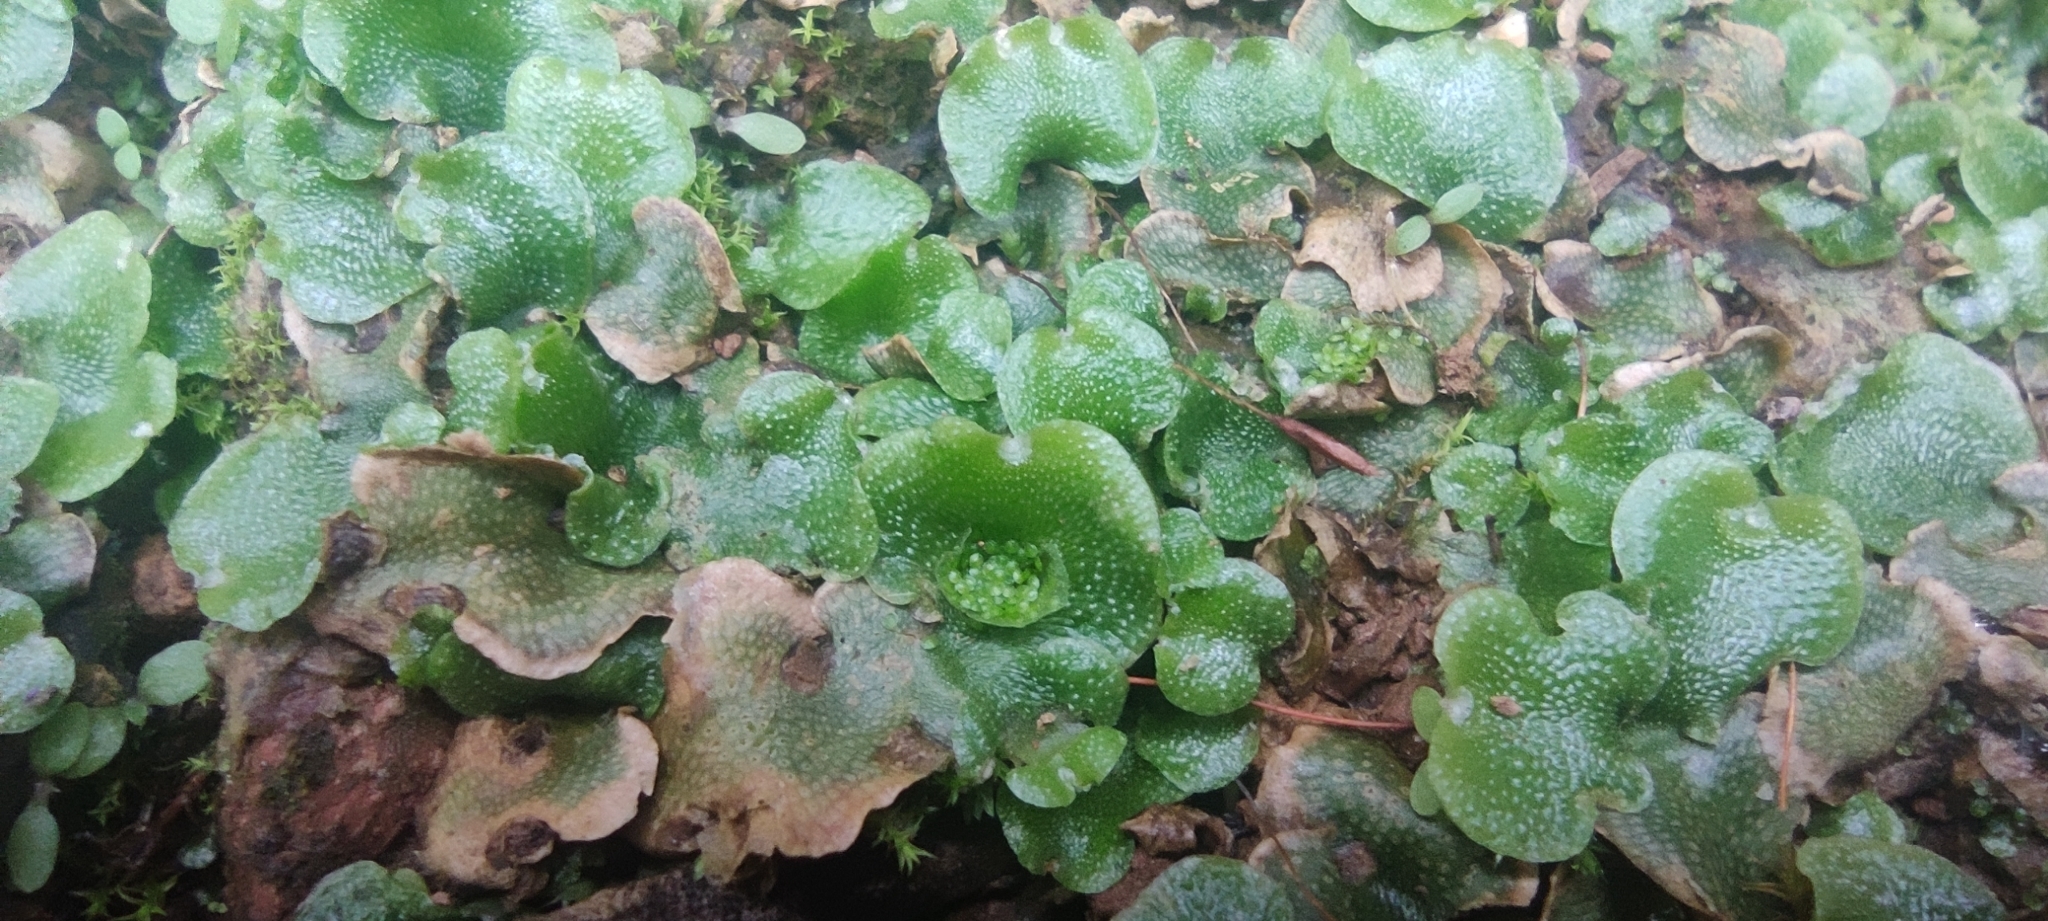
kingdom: Plantae
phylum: Marchantiophyta
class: Marchantiopsida
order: Lunulariales
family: Lunulariaceae
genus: Lunularia
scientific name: Lunularia cruciata
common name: Crescent-cup liverwort
